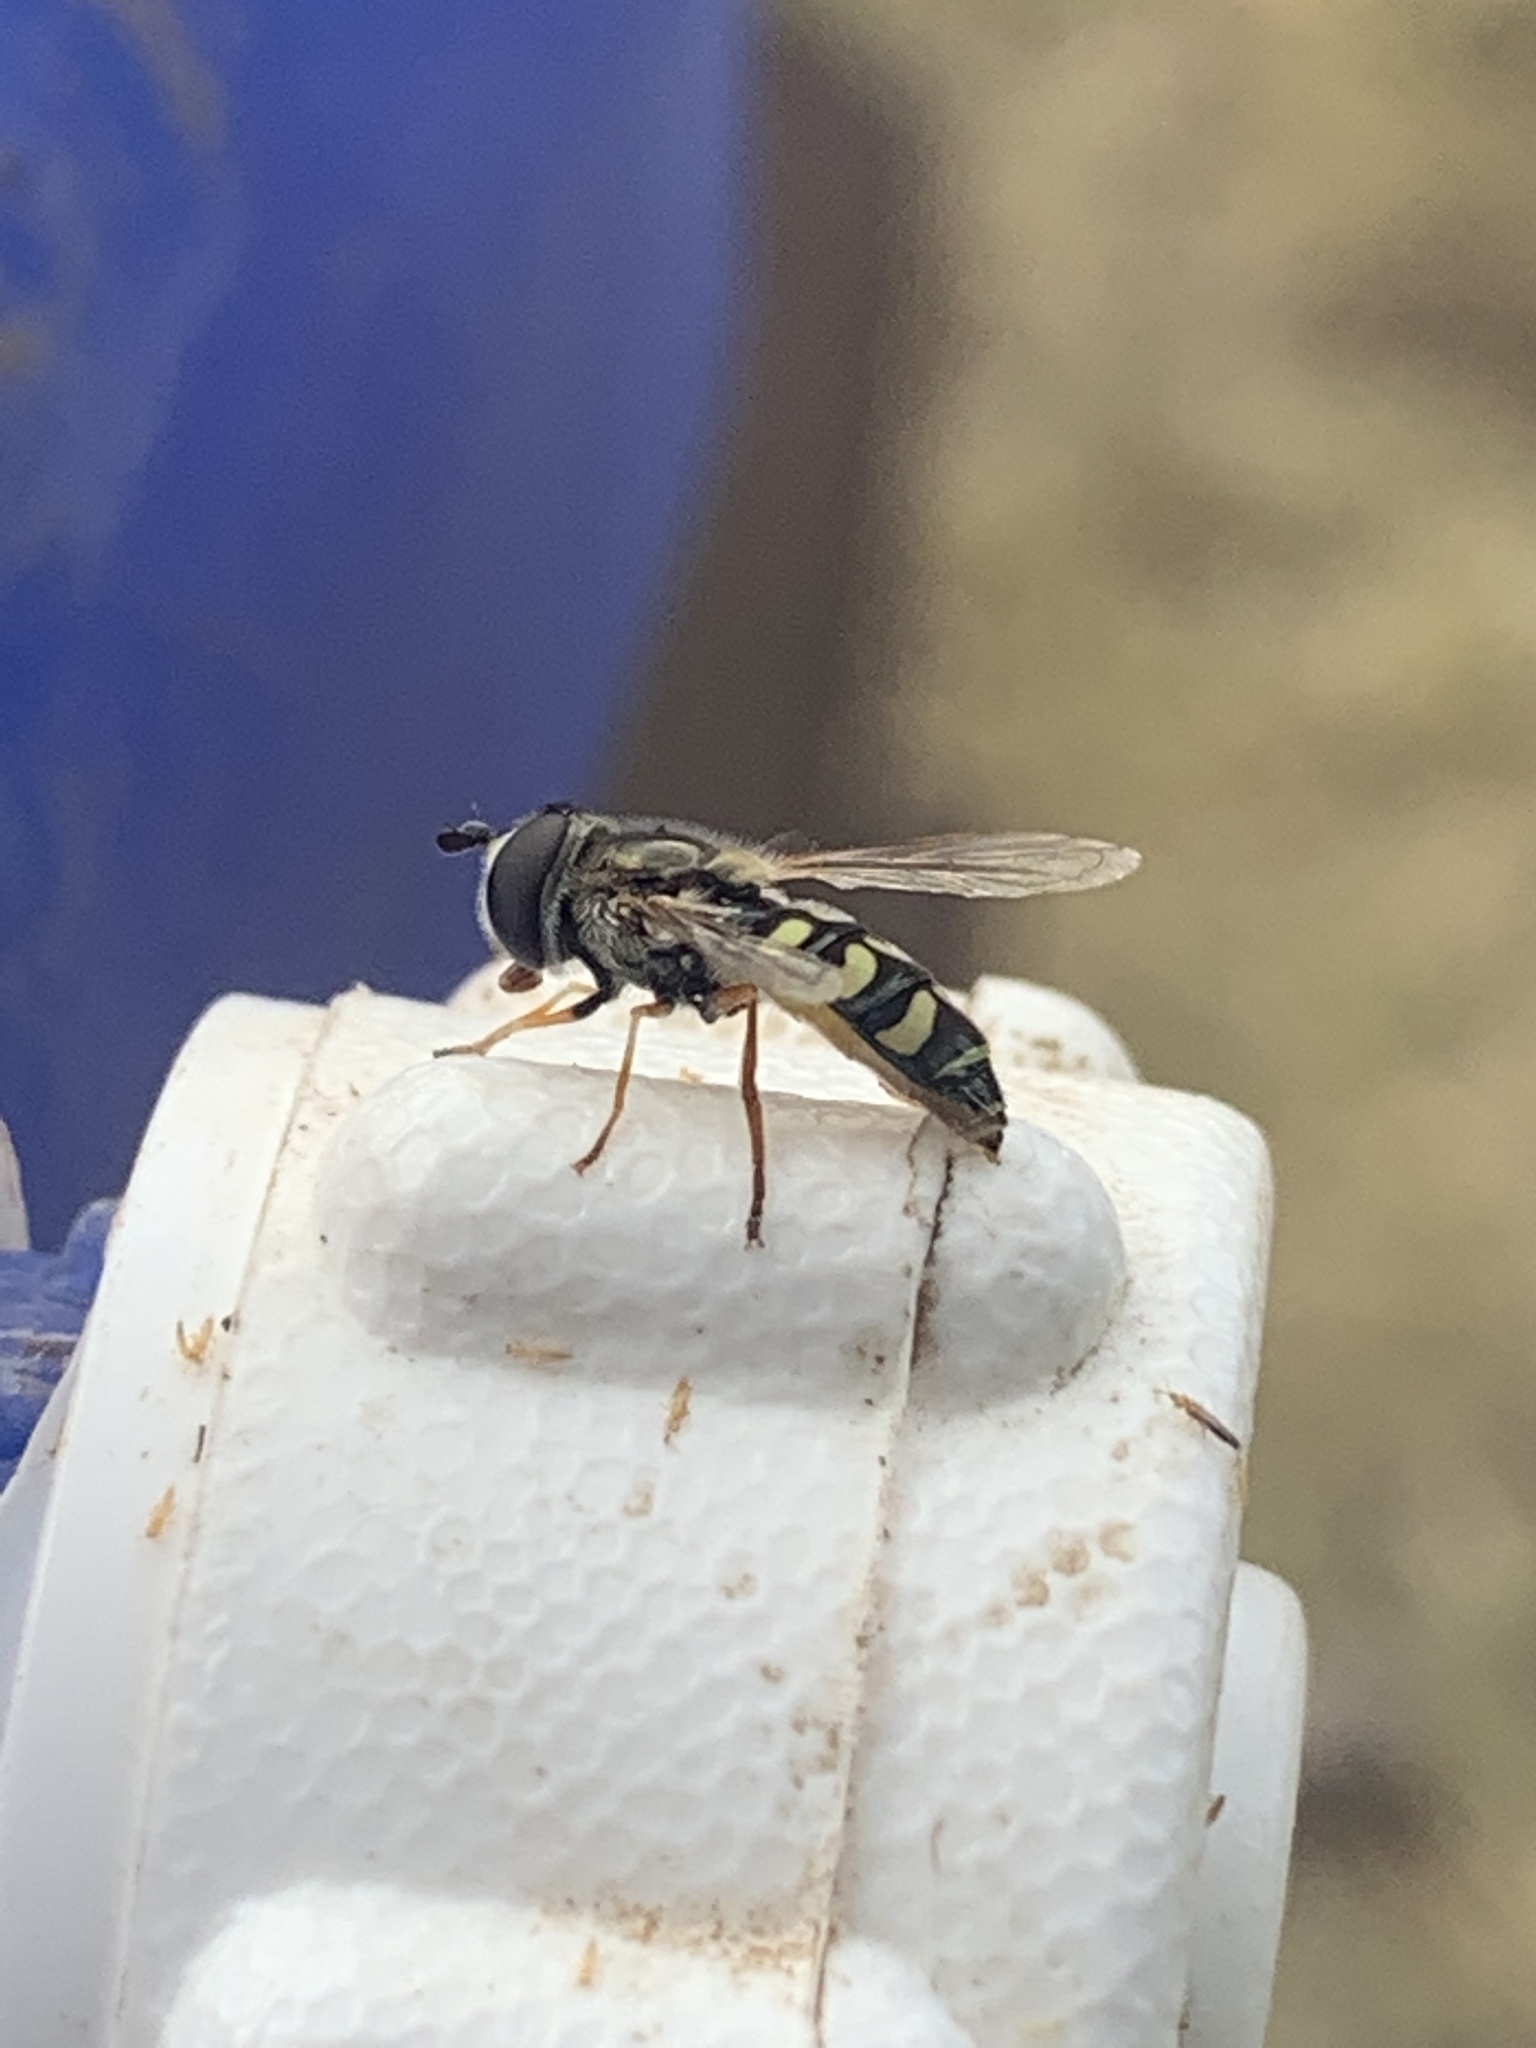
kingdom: Animalia
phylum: Arthropoda
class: Insecta
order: Diptera
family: Syrphidae
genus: Eupeodes
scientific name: Eupeodes volucris
